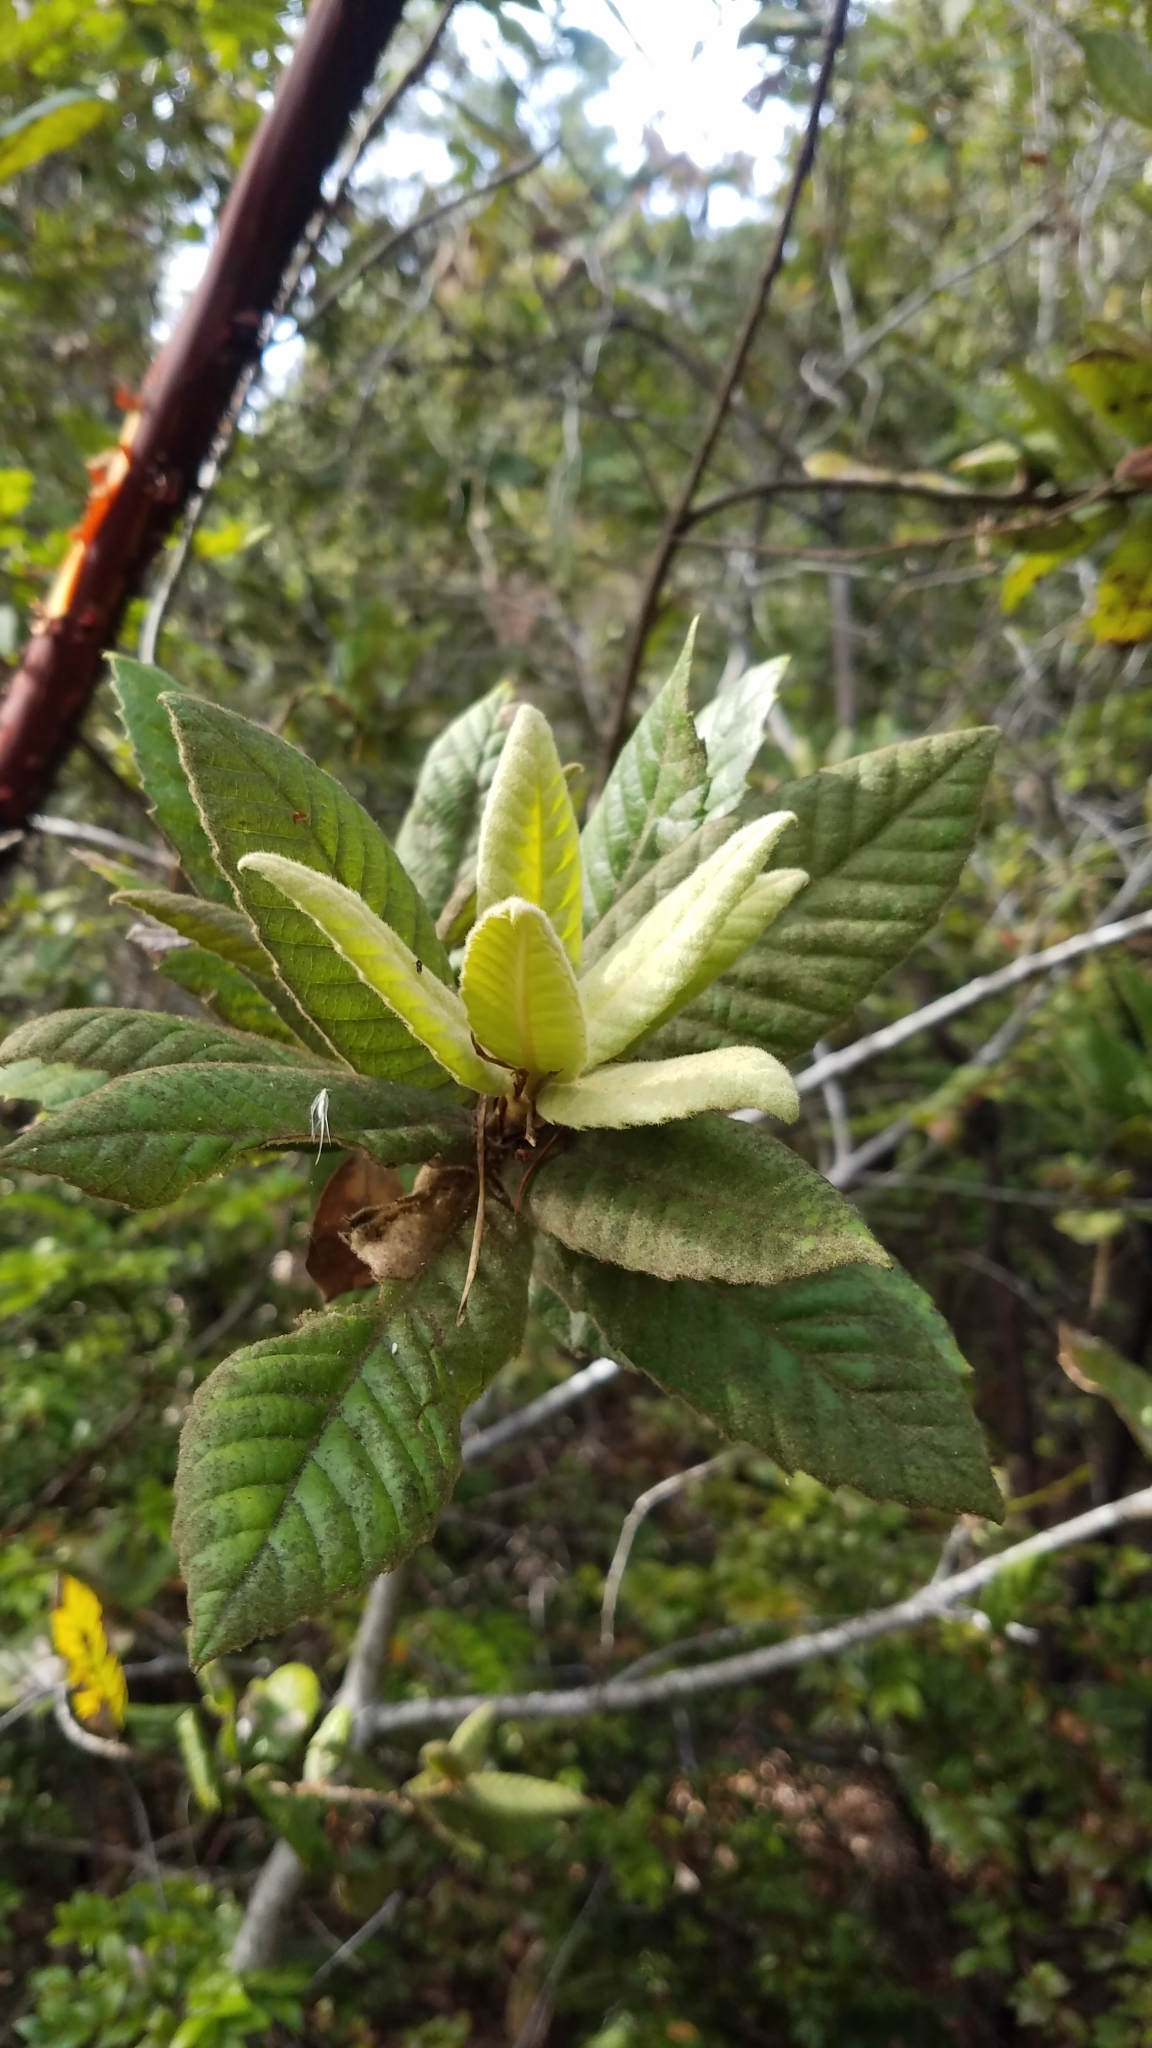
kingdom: Plantae
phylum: Tracheophyta
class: Magnoliopsida
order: Fagales
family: Fagaceae
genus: Notholithocarpus
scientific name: Notholithocarpus densiflorus
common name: Tan bark oak
